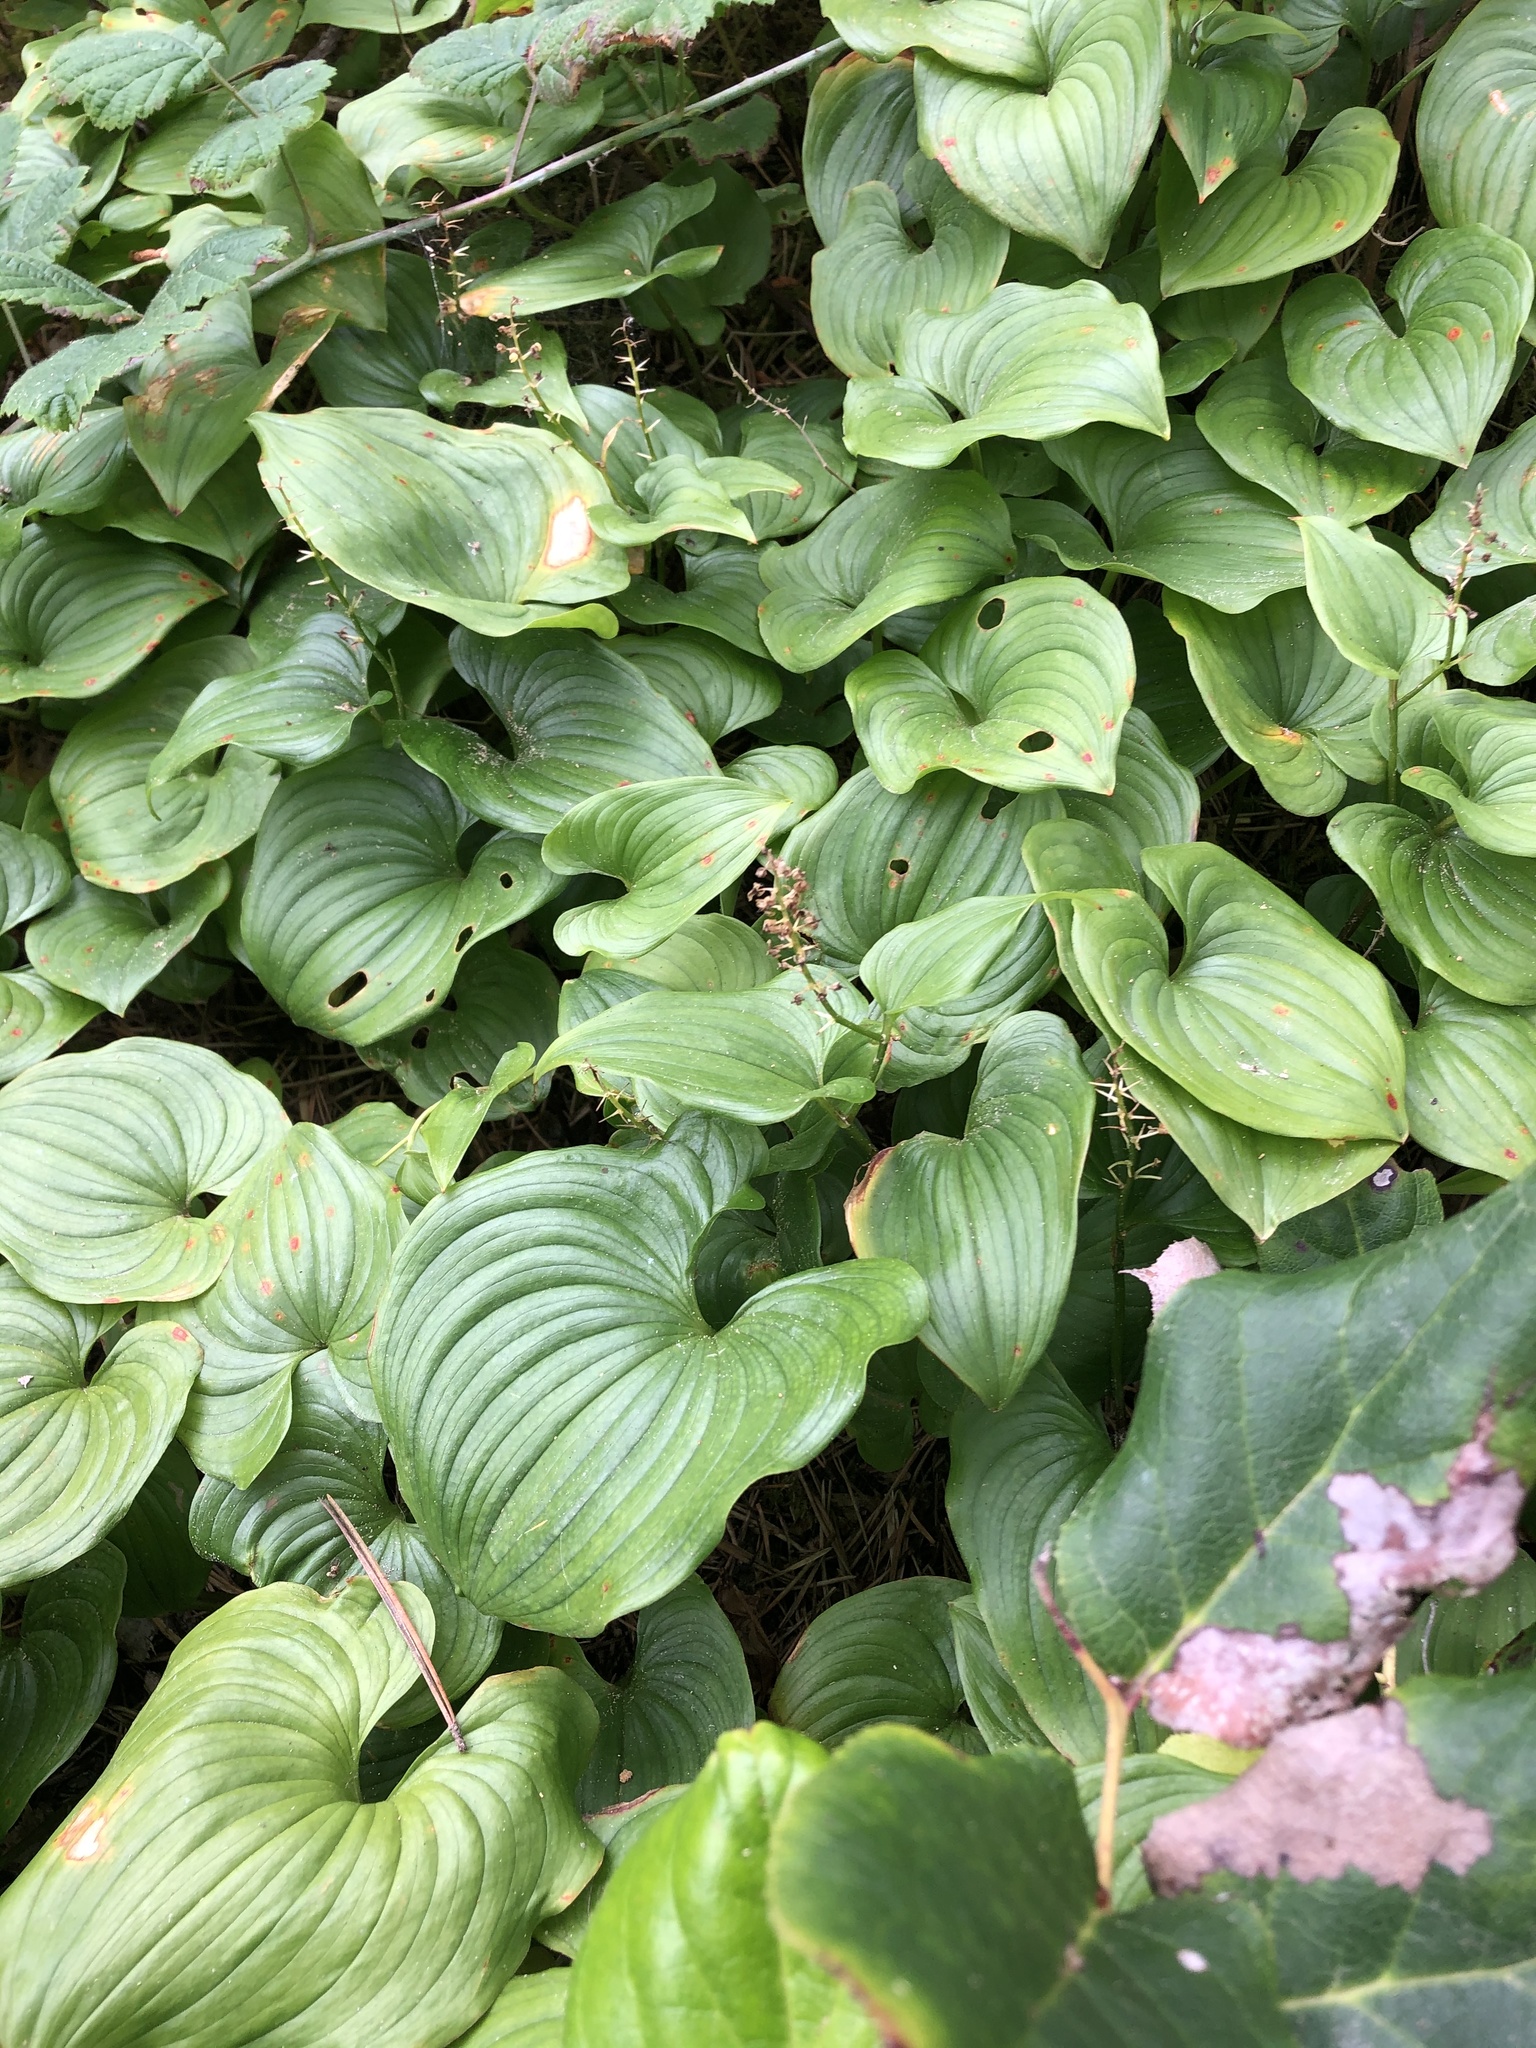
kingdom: Plantae
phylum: Tracheophyta
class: Liliopsida
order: Asparagales
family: Asparagaceae
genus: Maianthemum
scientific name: Maianthemum dilatatum
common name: False lily-of-the-valley
